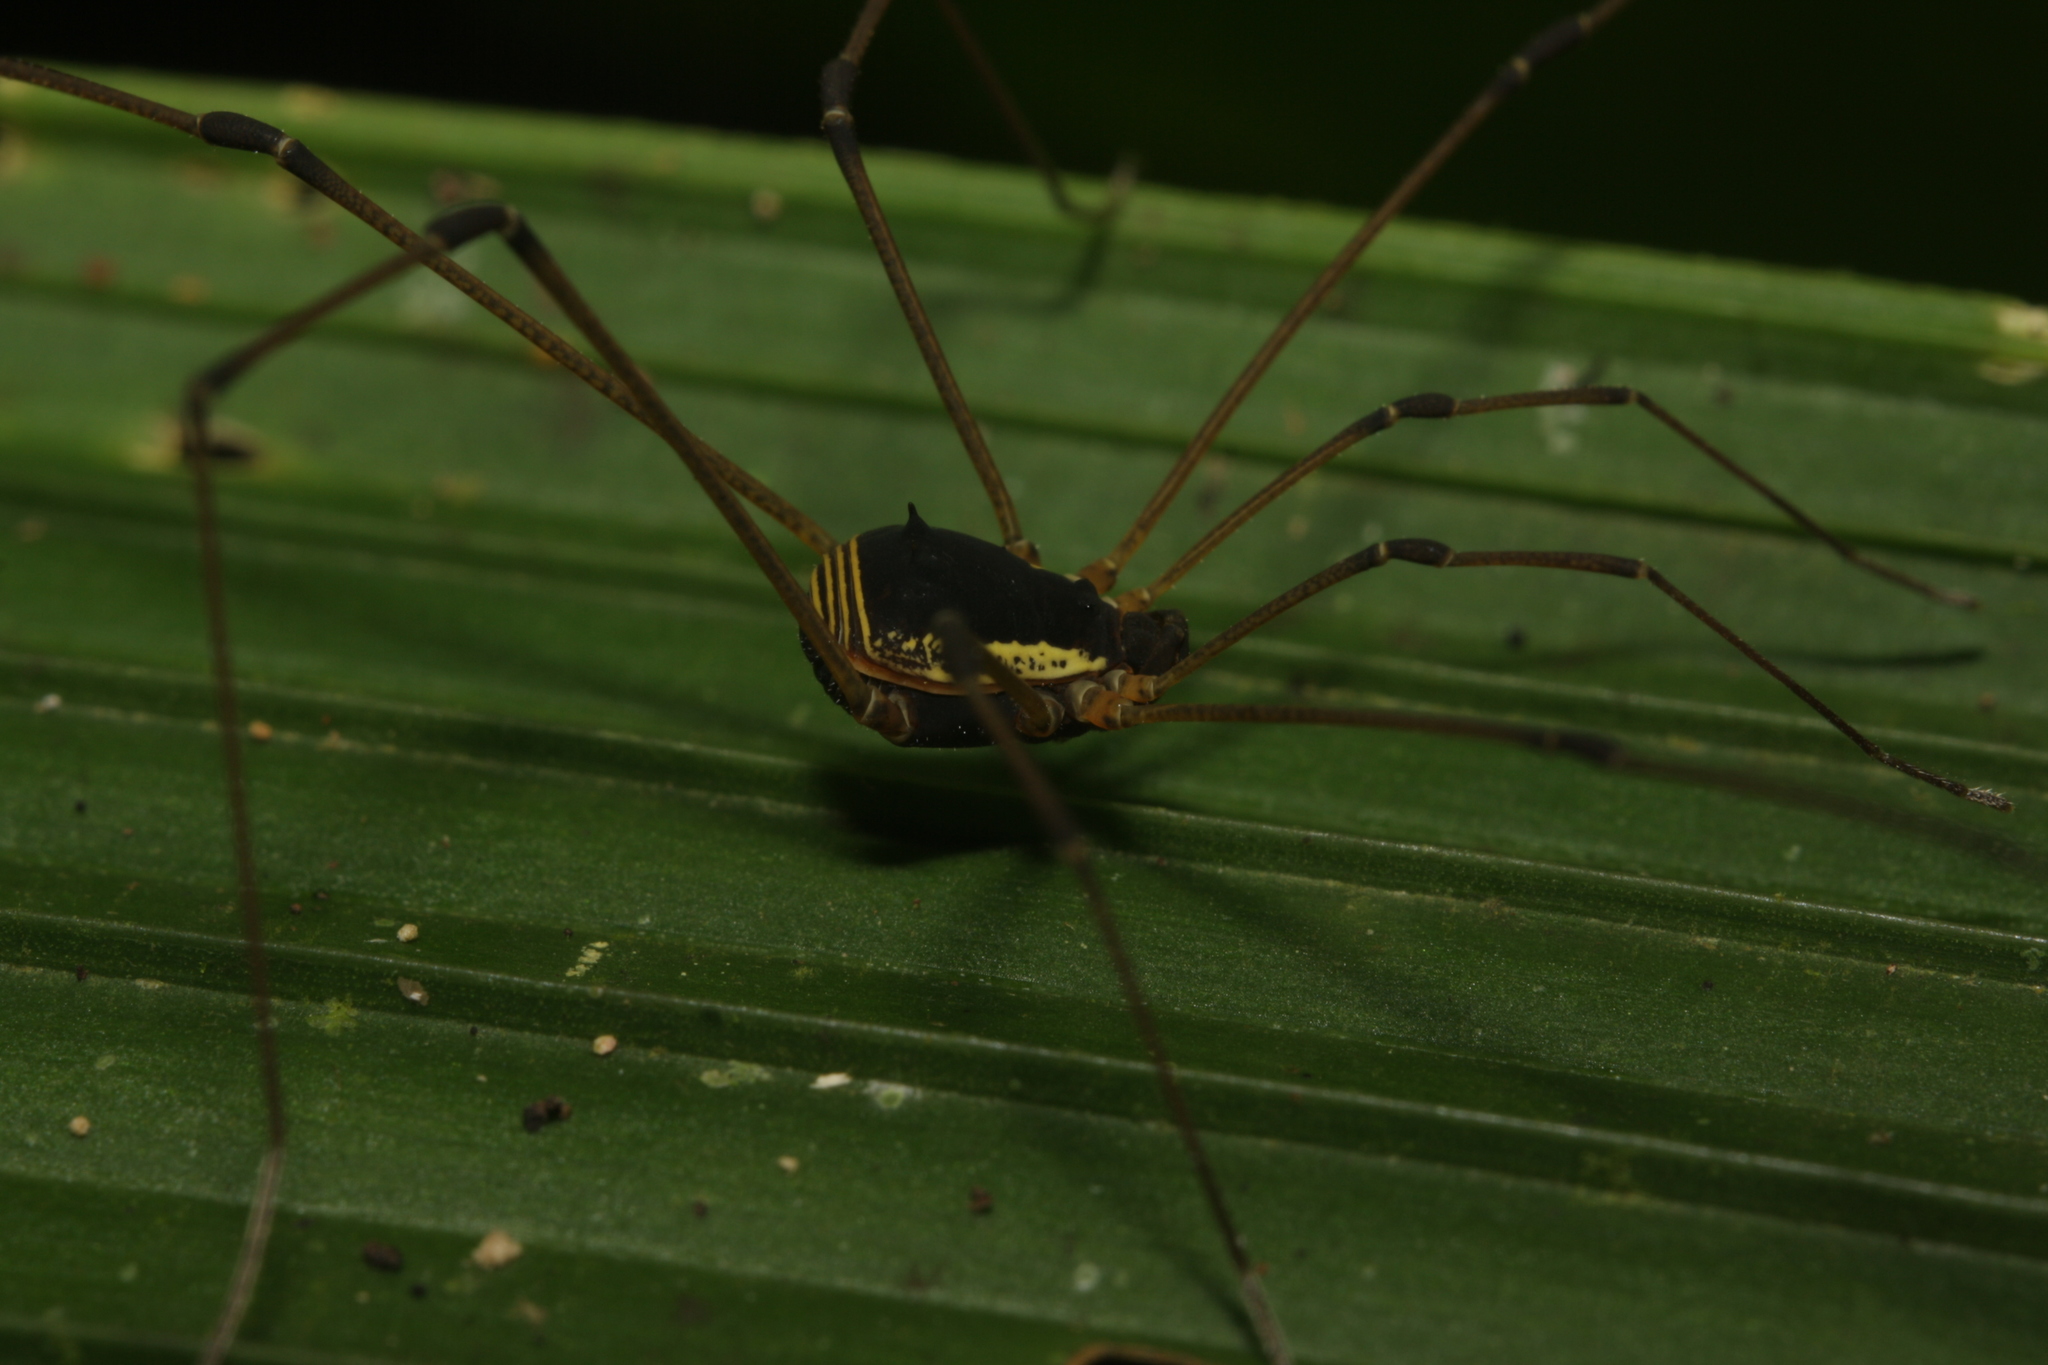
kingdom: Animalia
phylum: Arthropoda
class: Arachnida
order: Opiliones
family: Cosmetidae
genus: Cynorta
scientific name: Cynorta marginalis
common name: Harvestmen
